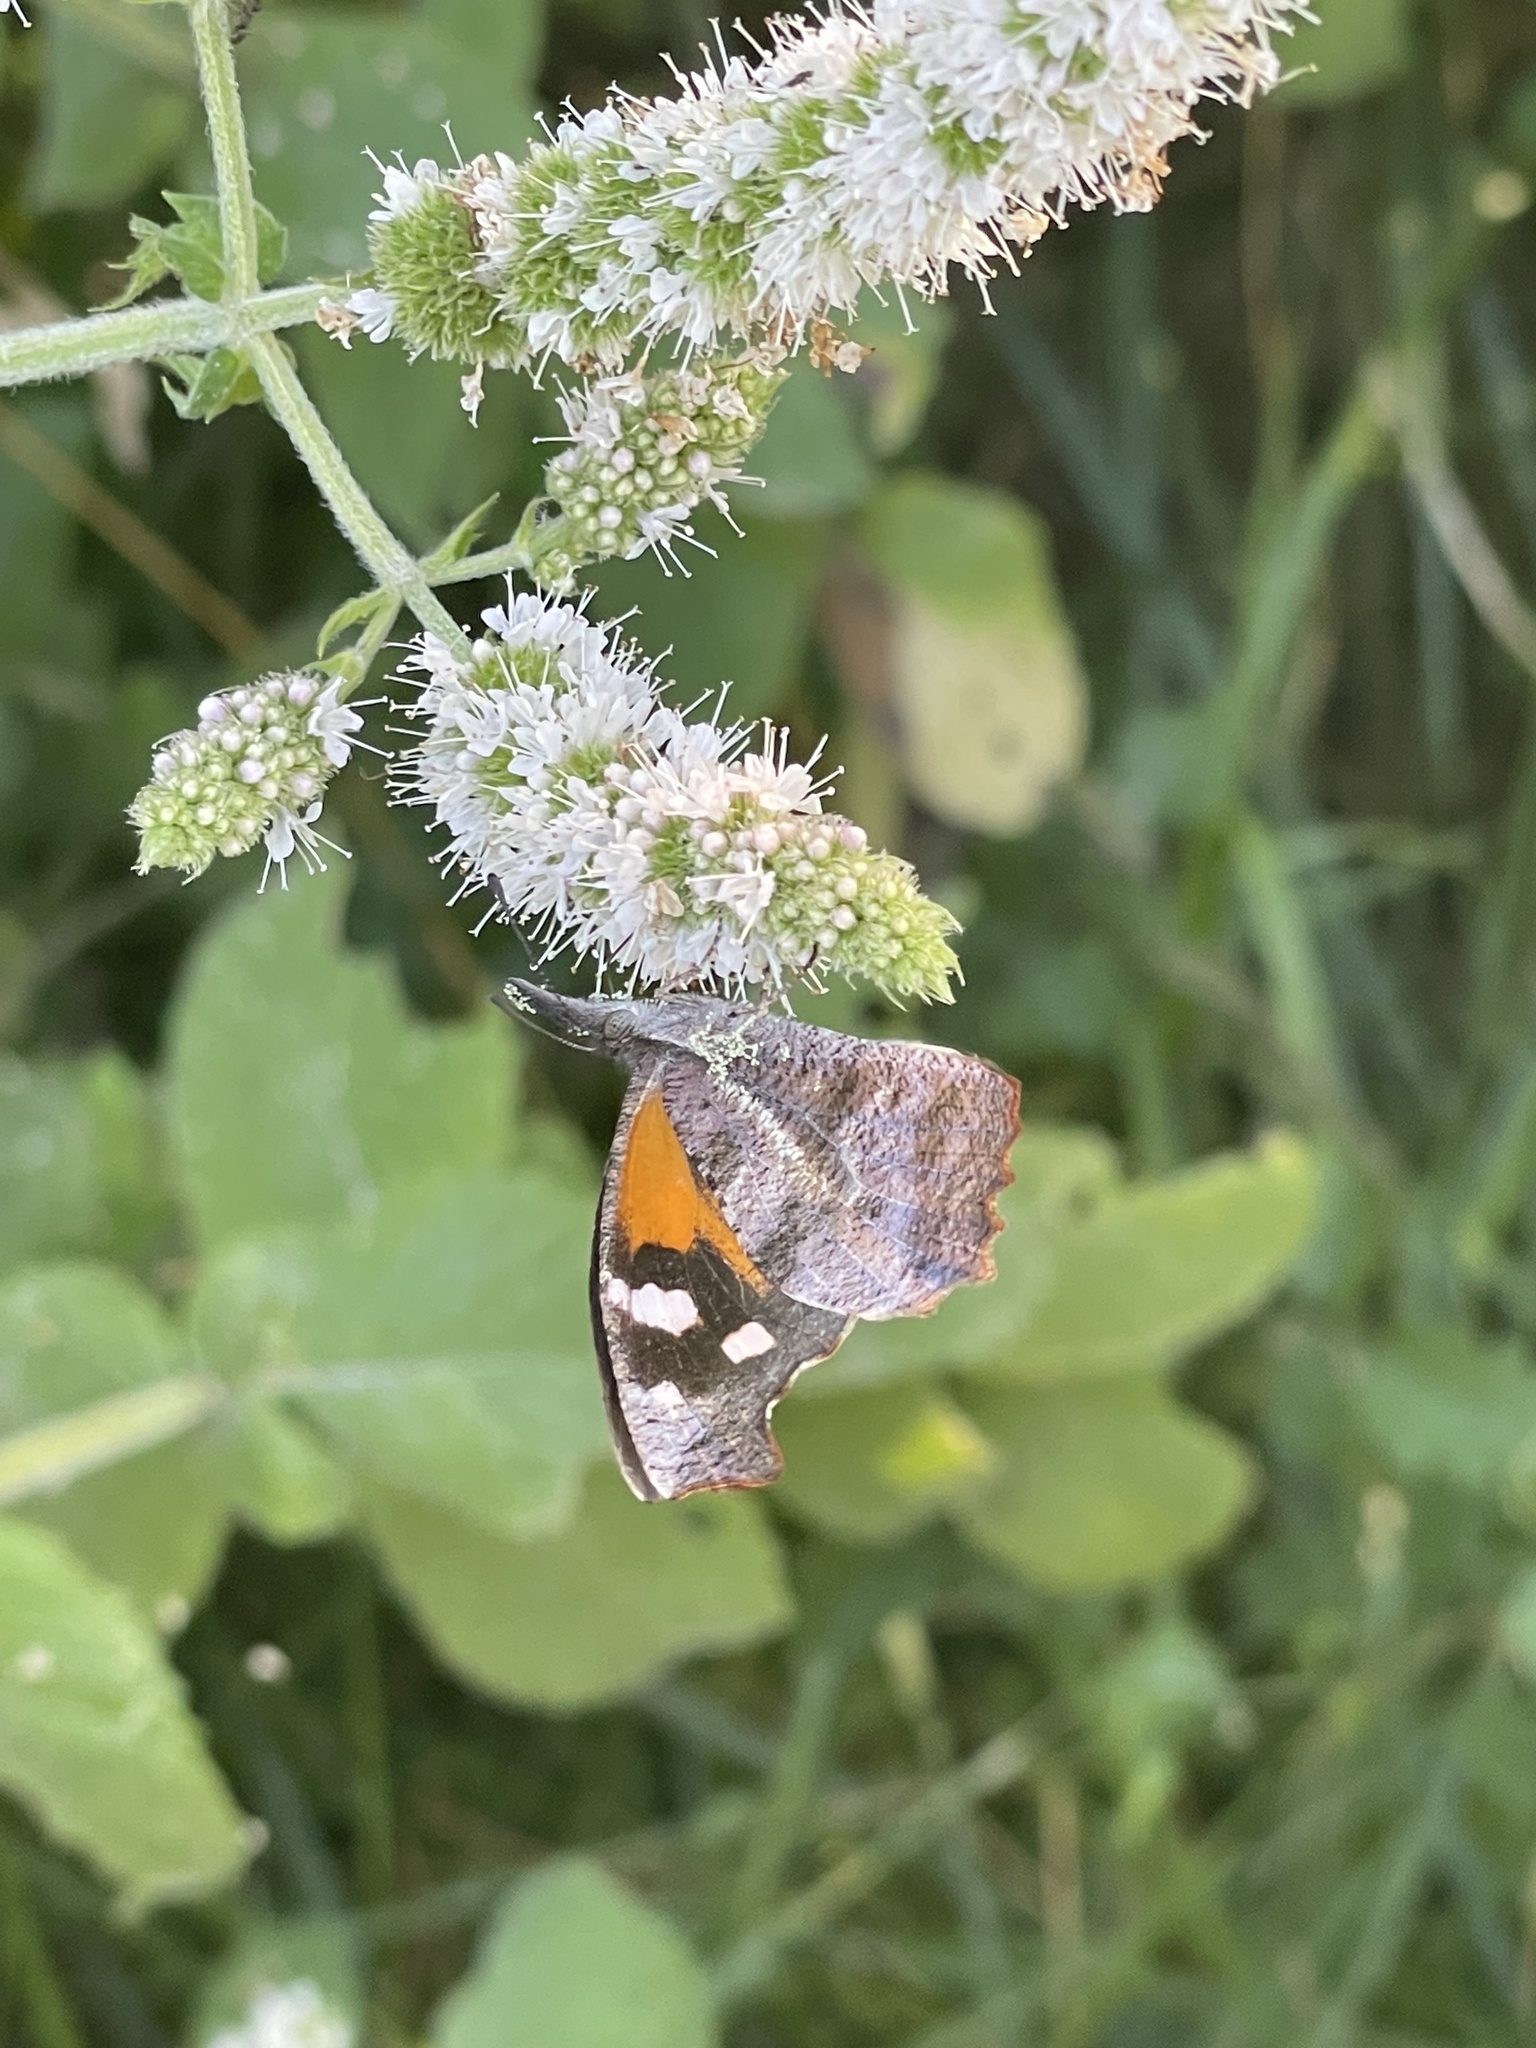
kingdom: Animalia
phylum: Arthropoda
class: Insecta
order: Lepidoptera
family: Nymphalidae
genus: Libytheana
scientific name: Libytheana carinenta
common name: American snout
